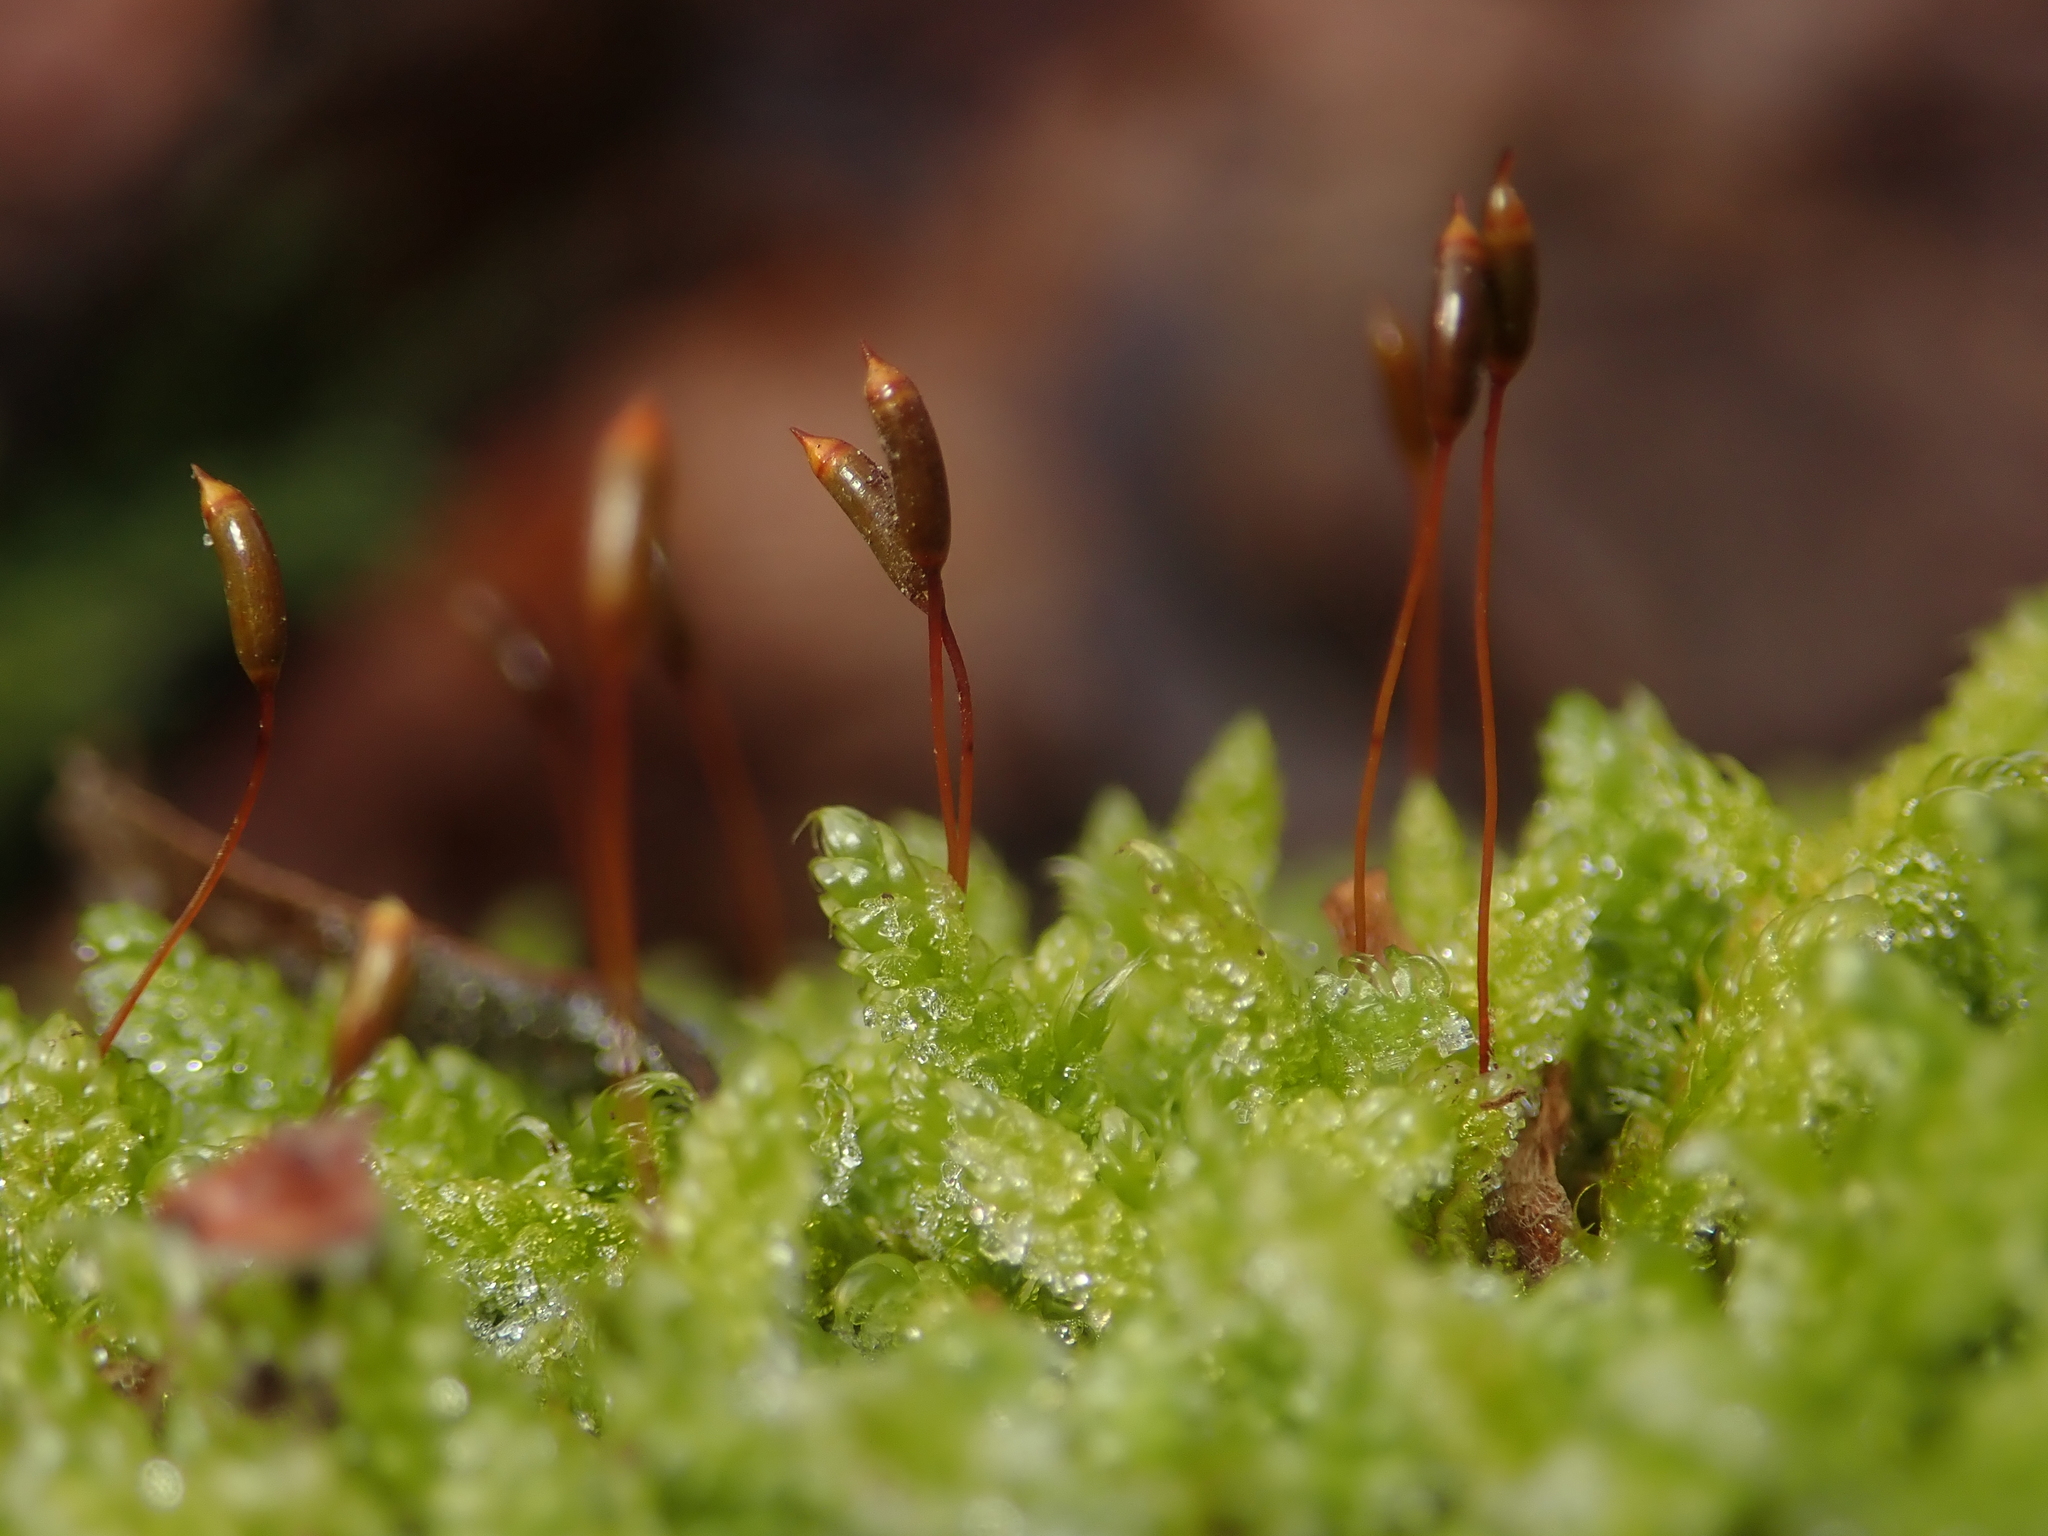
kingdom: Plantae
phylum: Bryophyta
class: Bryopsida
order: Hypnales
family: Hypnaceae
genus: Hypnum
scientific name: Hypnum cupressiforme
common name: Cypress-leaved plait-moss
